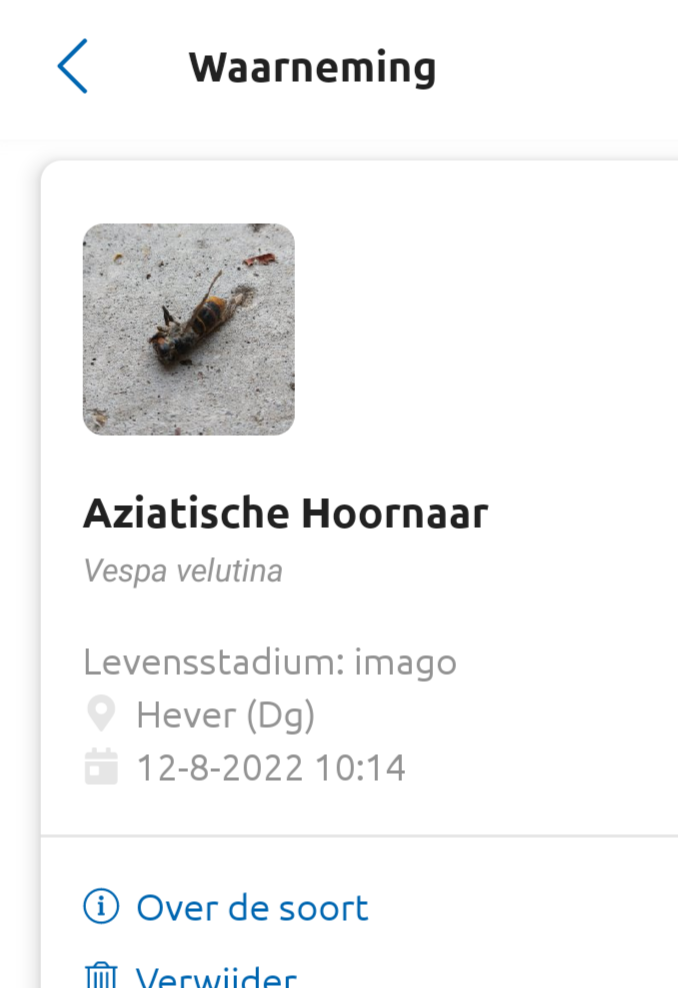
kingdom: Animalia
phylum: Arthropoda
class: Insecta
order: Hymenoptera
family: Vespidae
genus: Vespa
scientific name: Vespa velutina
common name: Asian hornet
